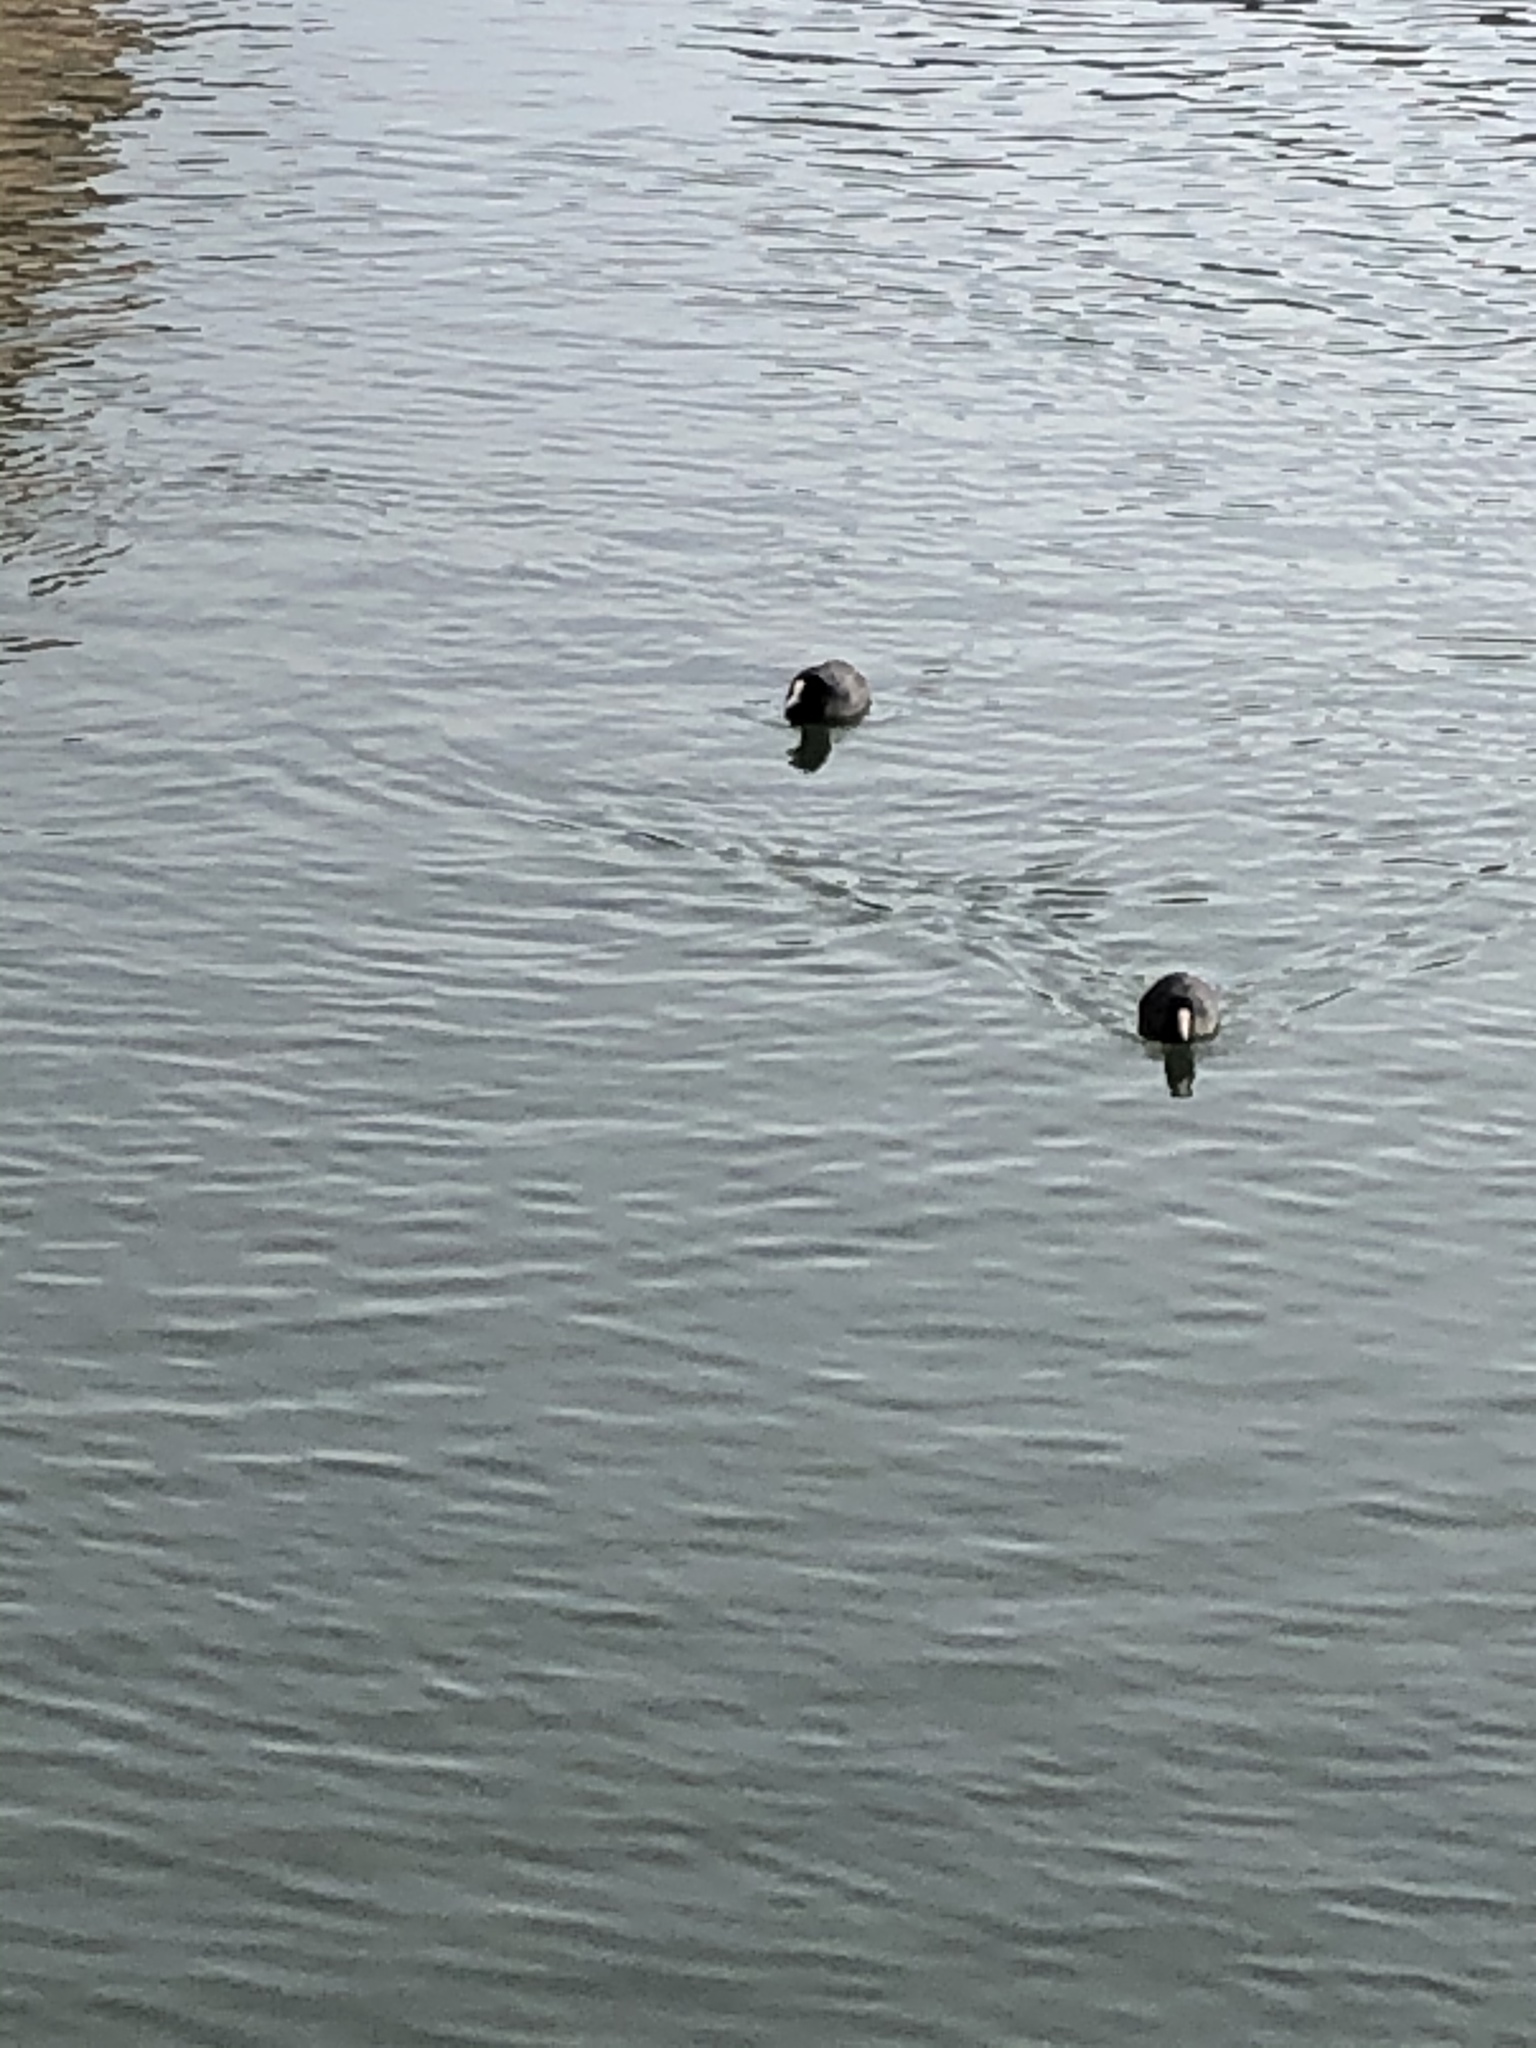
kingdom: Animalia
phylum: Chordata
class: Aves
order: Gruiformes
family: Rallidae
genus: Fulica
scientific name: Fulica atra
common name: Eurasian coot
